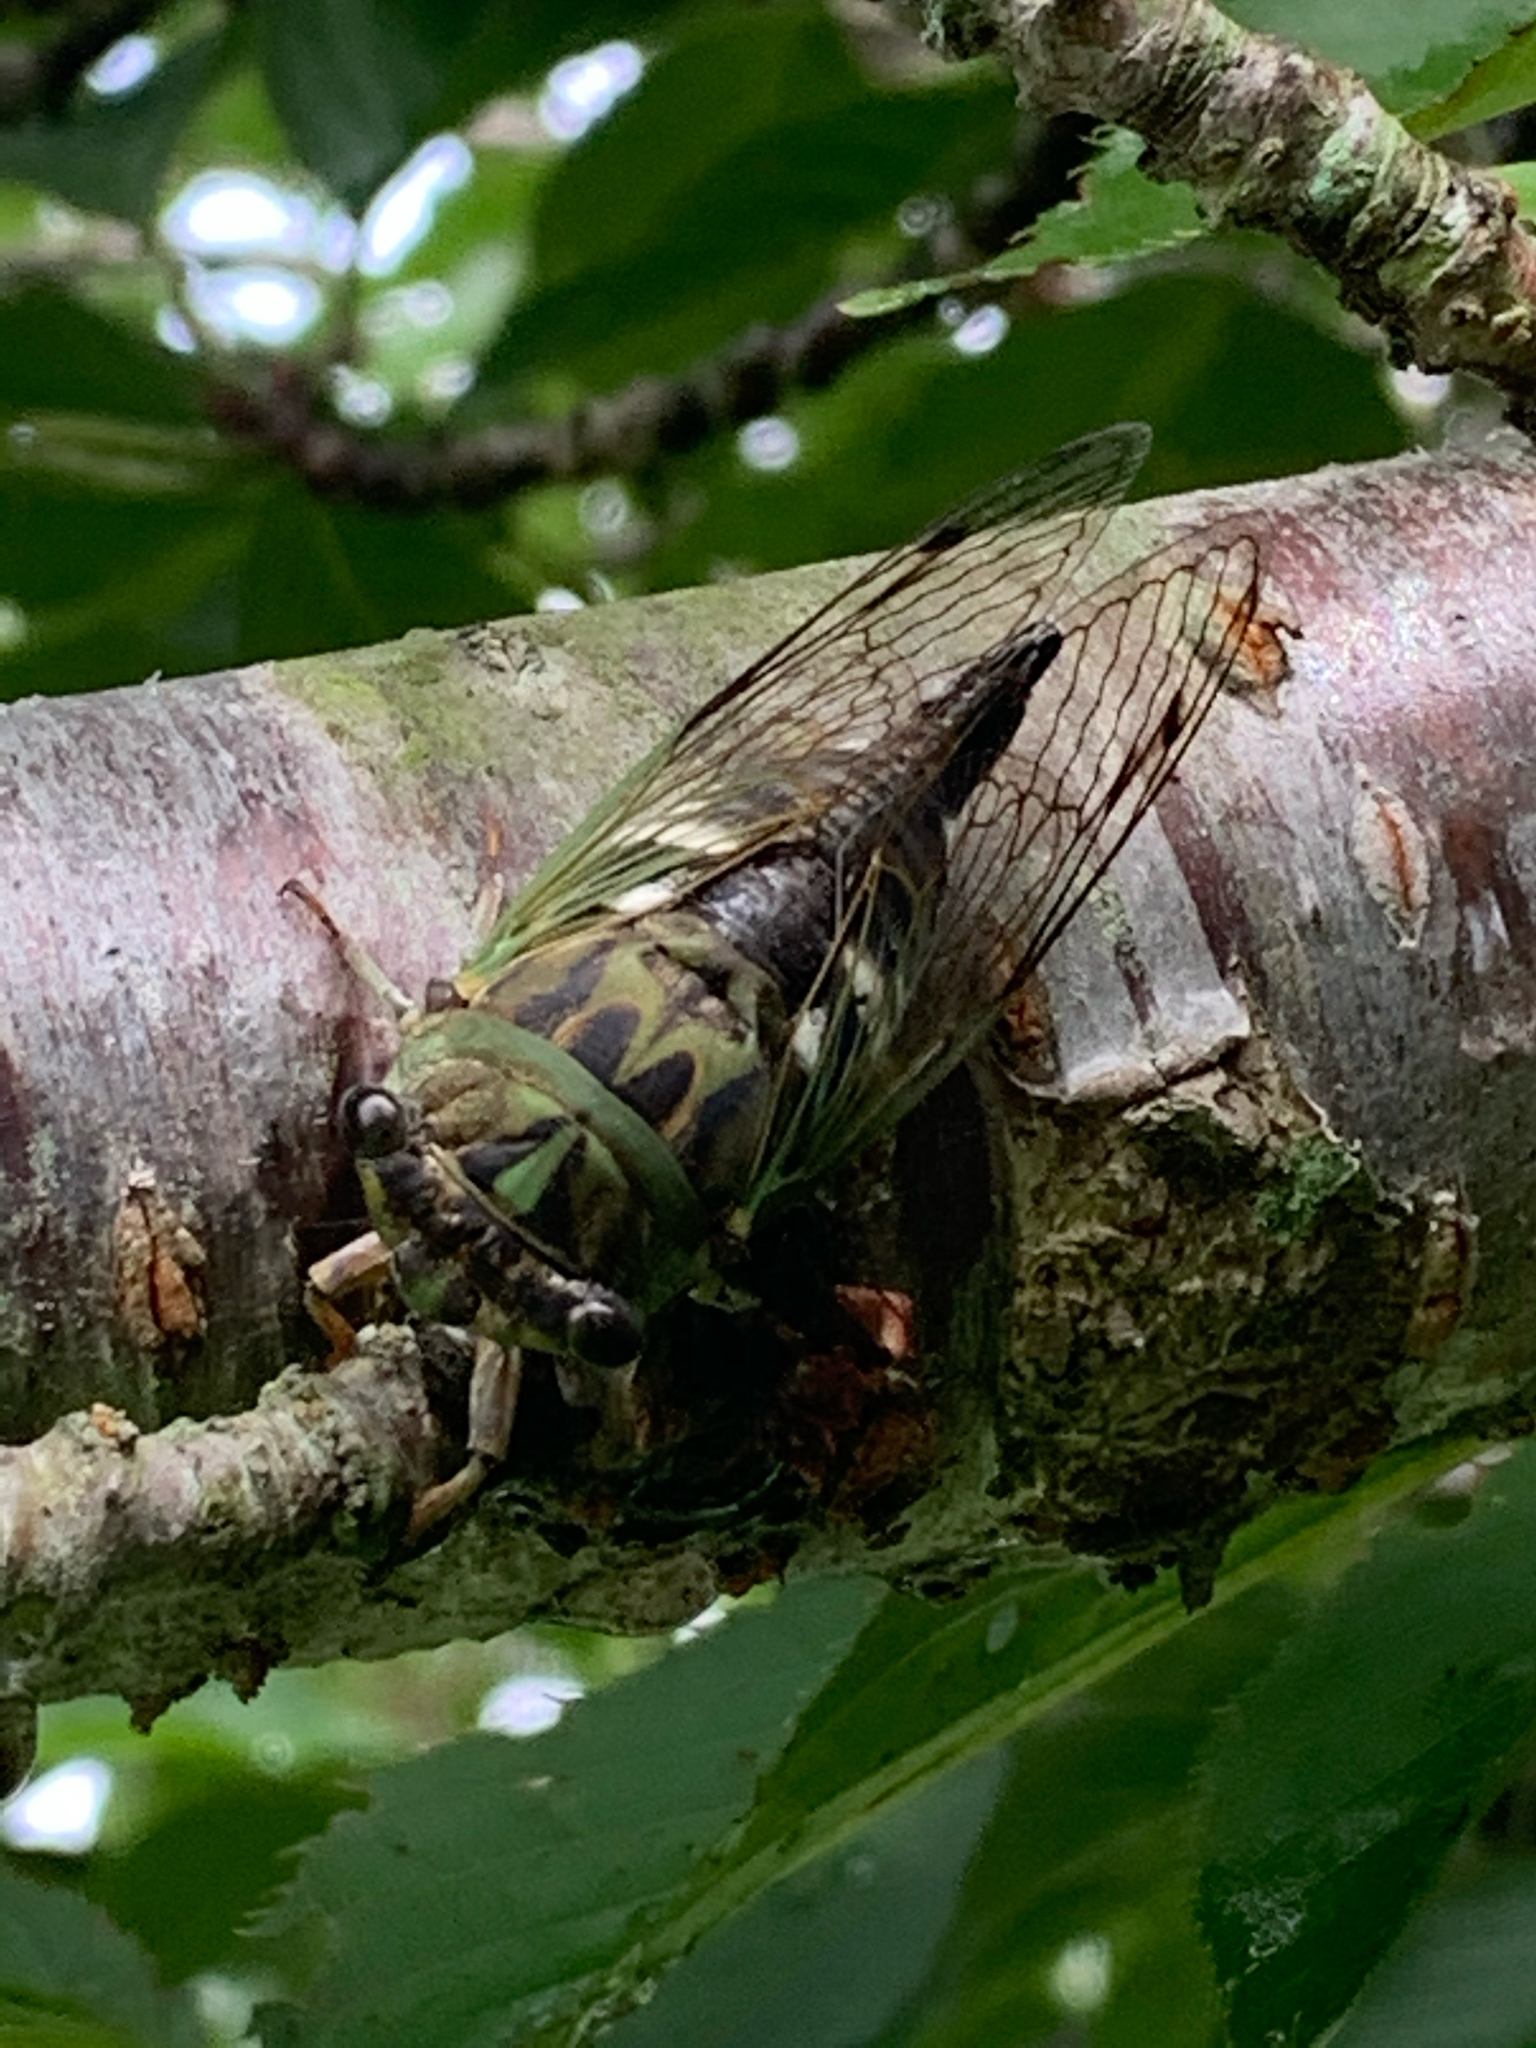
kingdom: Animalia
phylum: Arthropoda
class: Insecta
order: Hemiptera
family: Cicadidae
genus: Neotibicen
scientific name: Neotibicen latifasciatus
